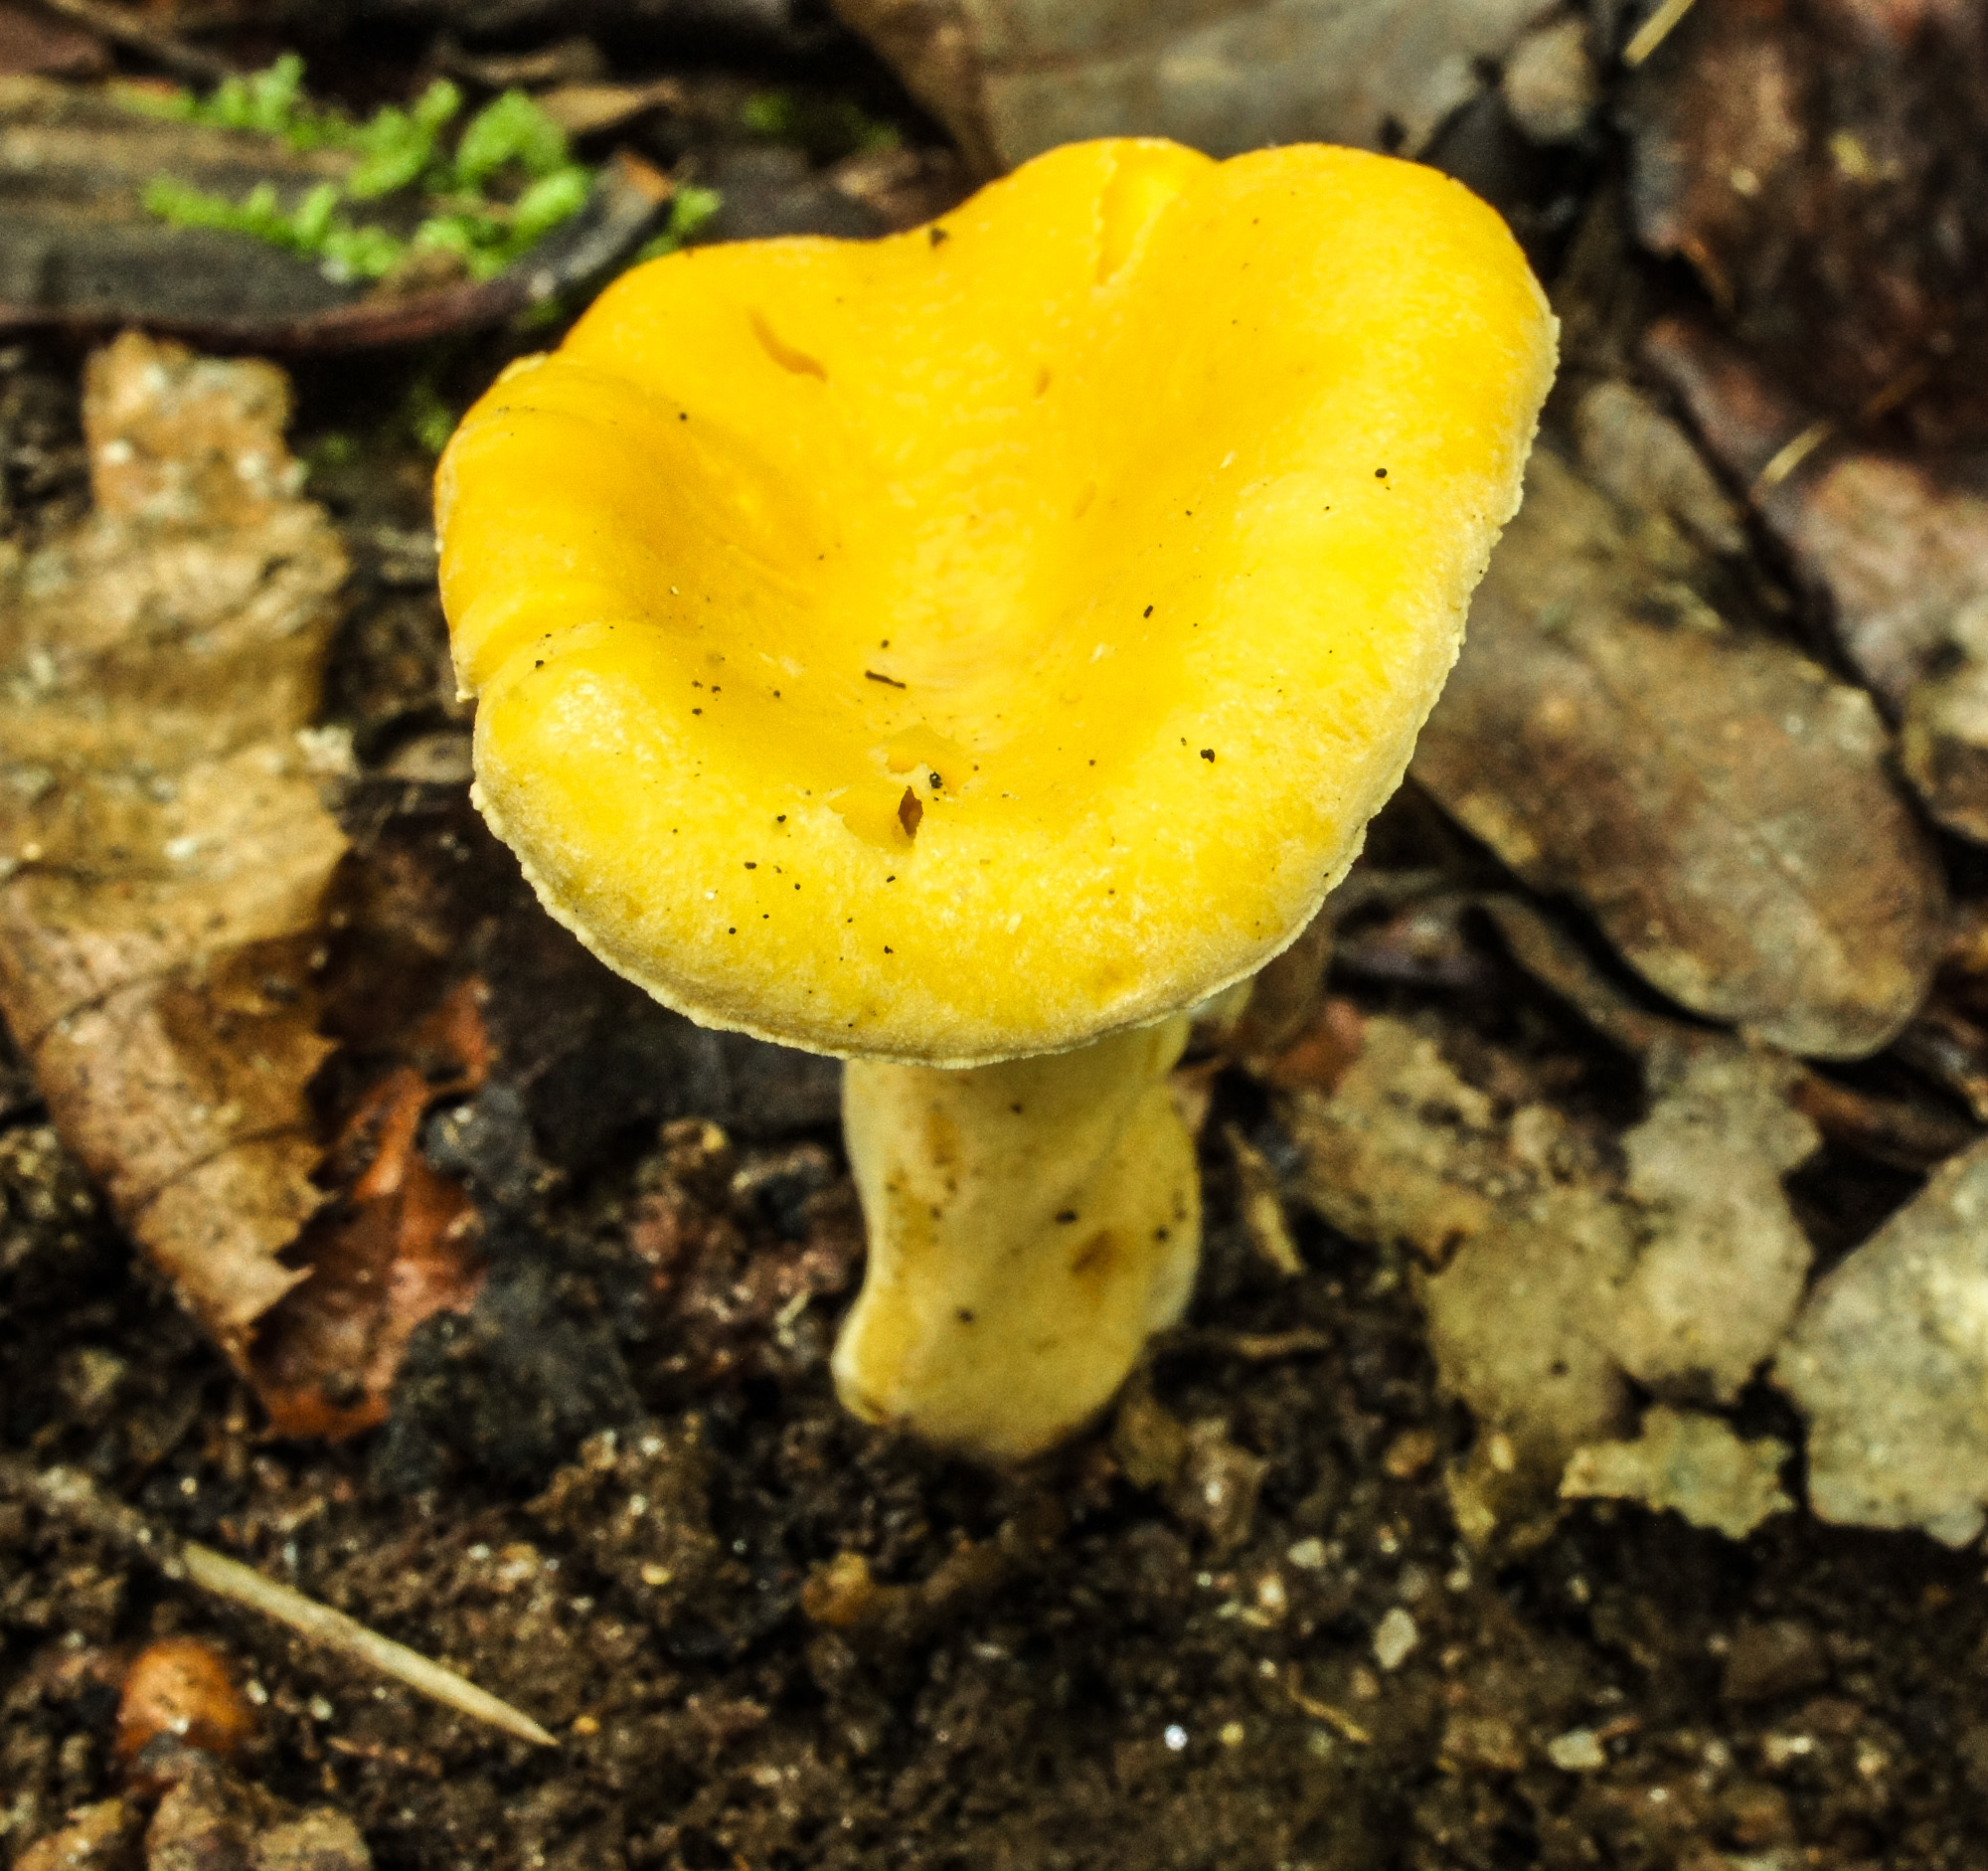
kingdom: Fungi
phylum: Basidiomycota
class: Agaricomycetes
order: Cantharellales
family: Hydnaceae
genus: Cantharellus
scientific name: Cantharellus lateritius
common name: Smooth chanterelle
